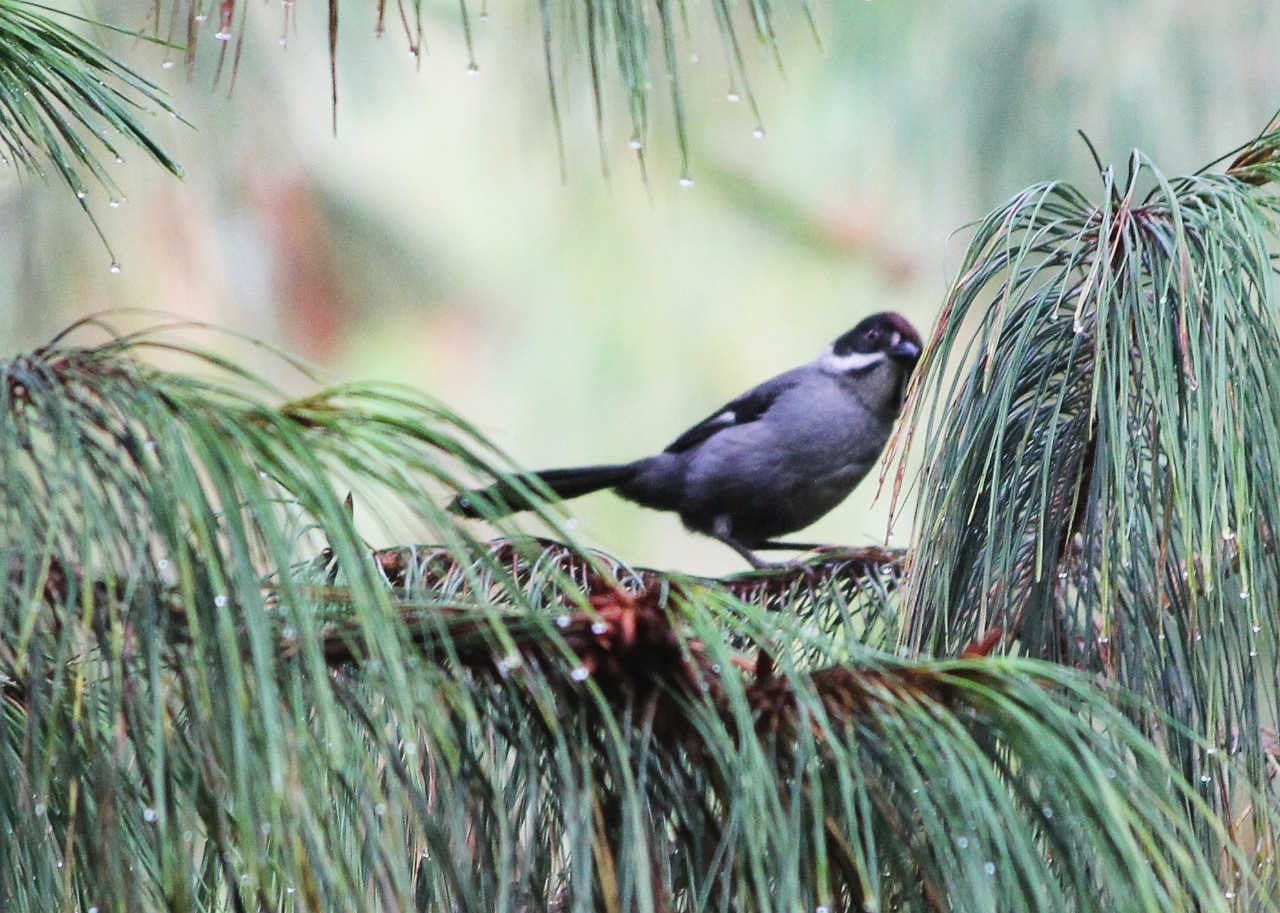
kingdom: Animalia
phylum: Chordata
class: Aves
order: Passeriformes
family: Passerellidae
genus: Atlapetes
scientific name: Atlapetes schistaceus
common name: Slaty brushfinch
